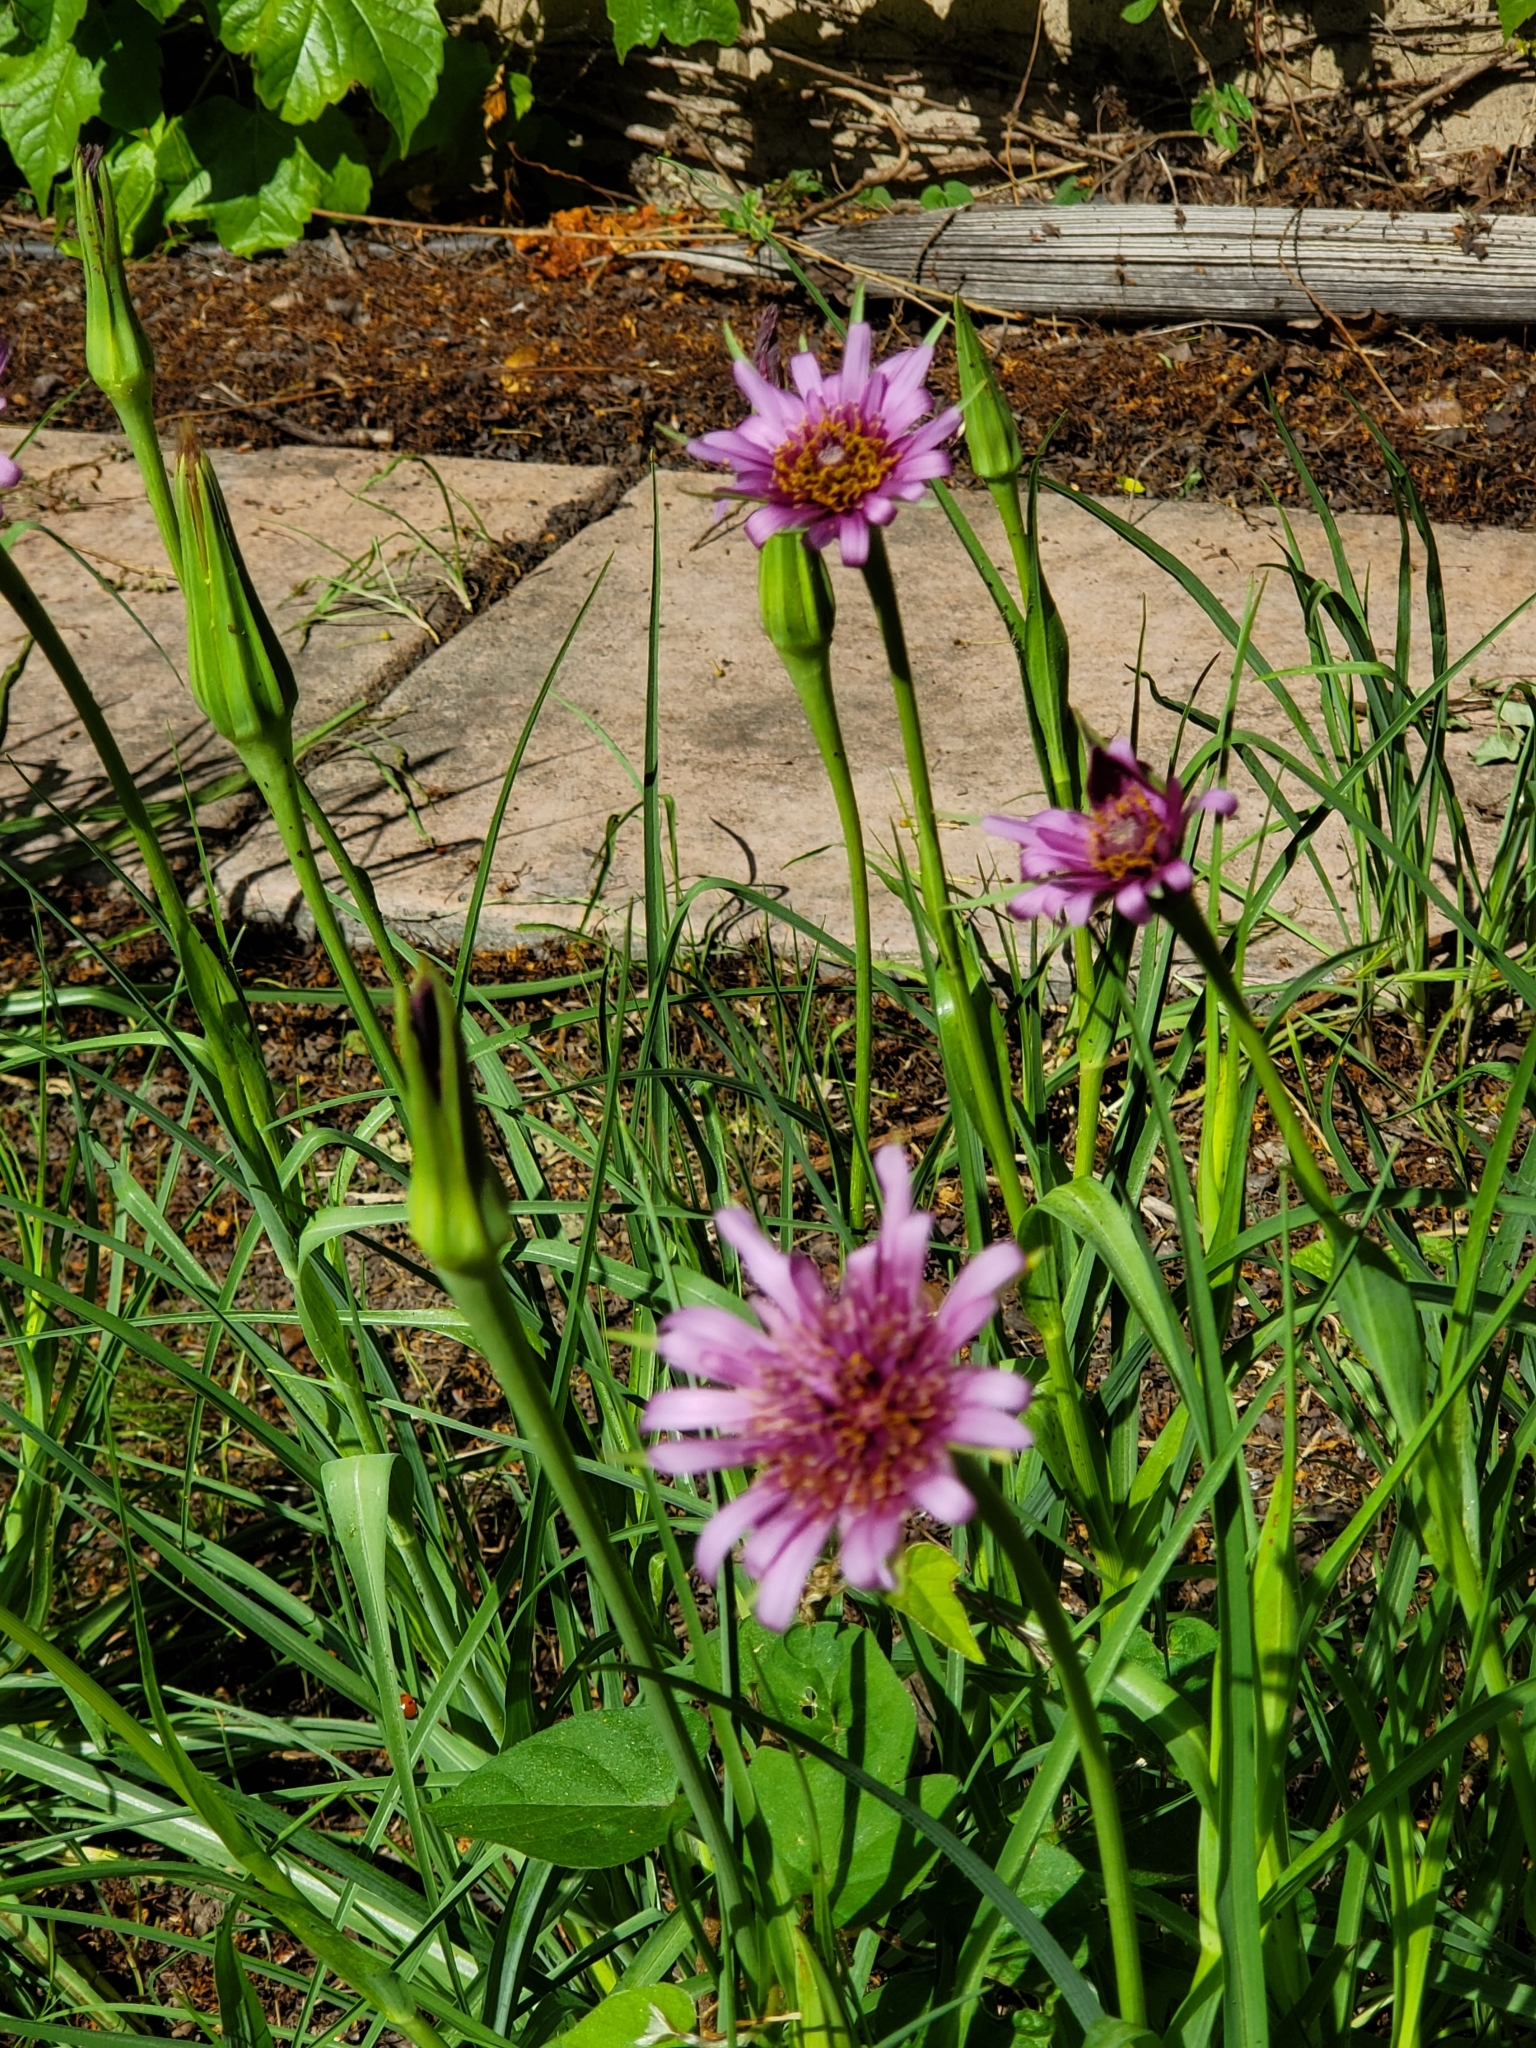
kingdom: Plantae
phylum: Tracheophyta
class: Magnoliopsida
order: Asterales
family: Asteraceae
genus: Tragopogon
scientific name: Tragopogon porrifolius
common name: Salsify
